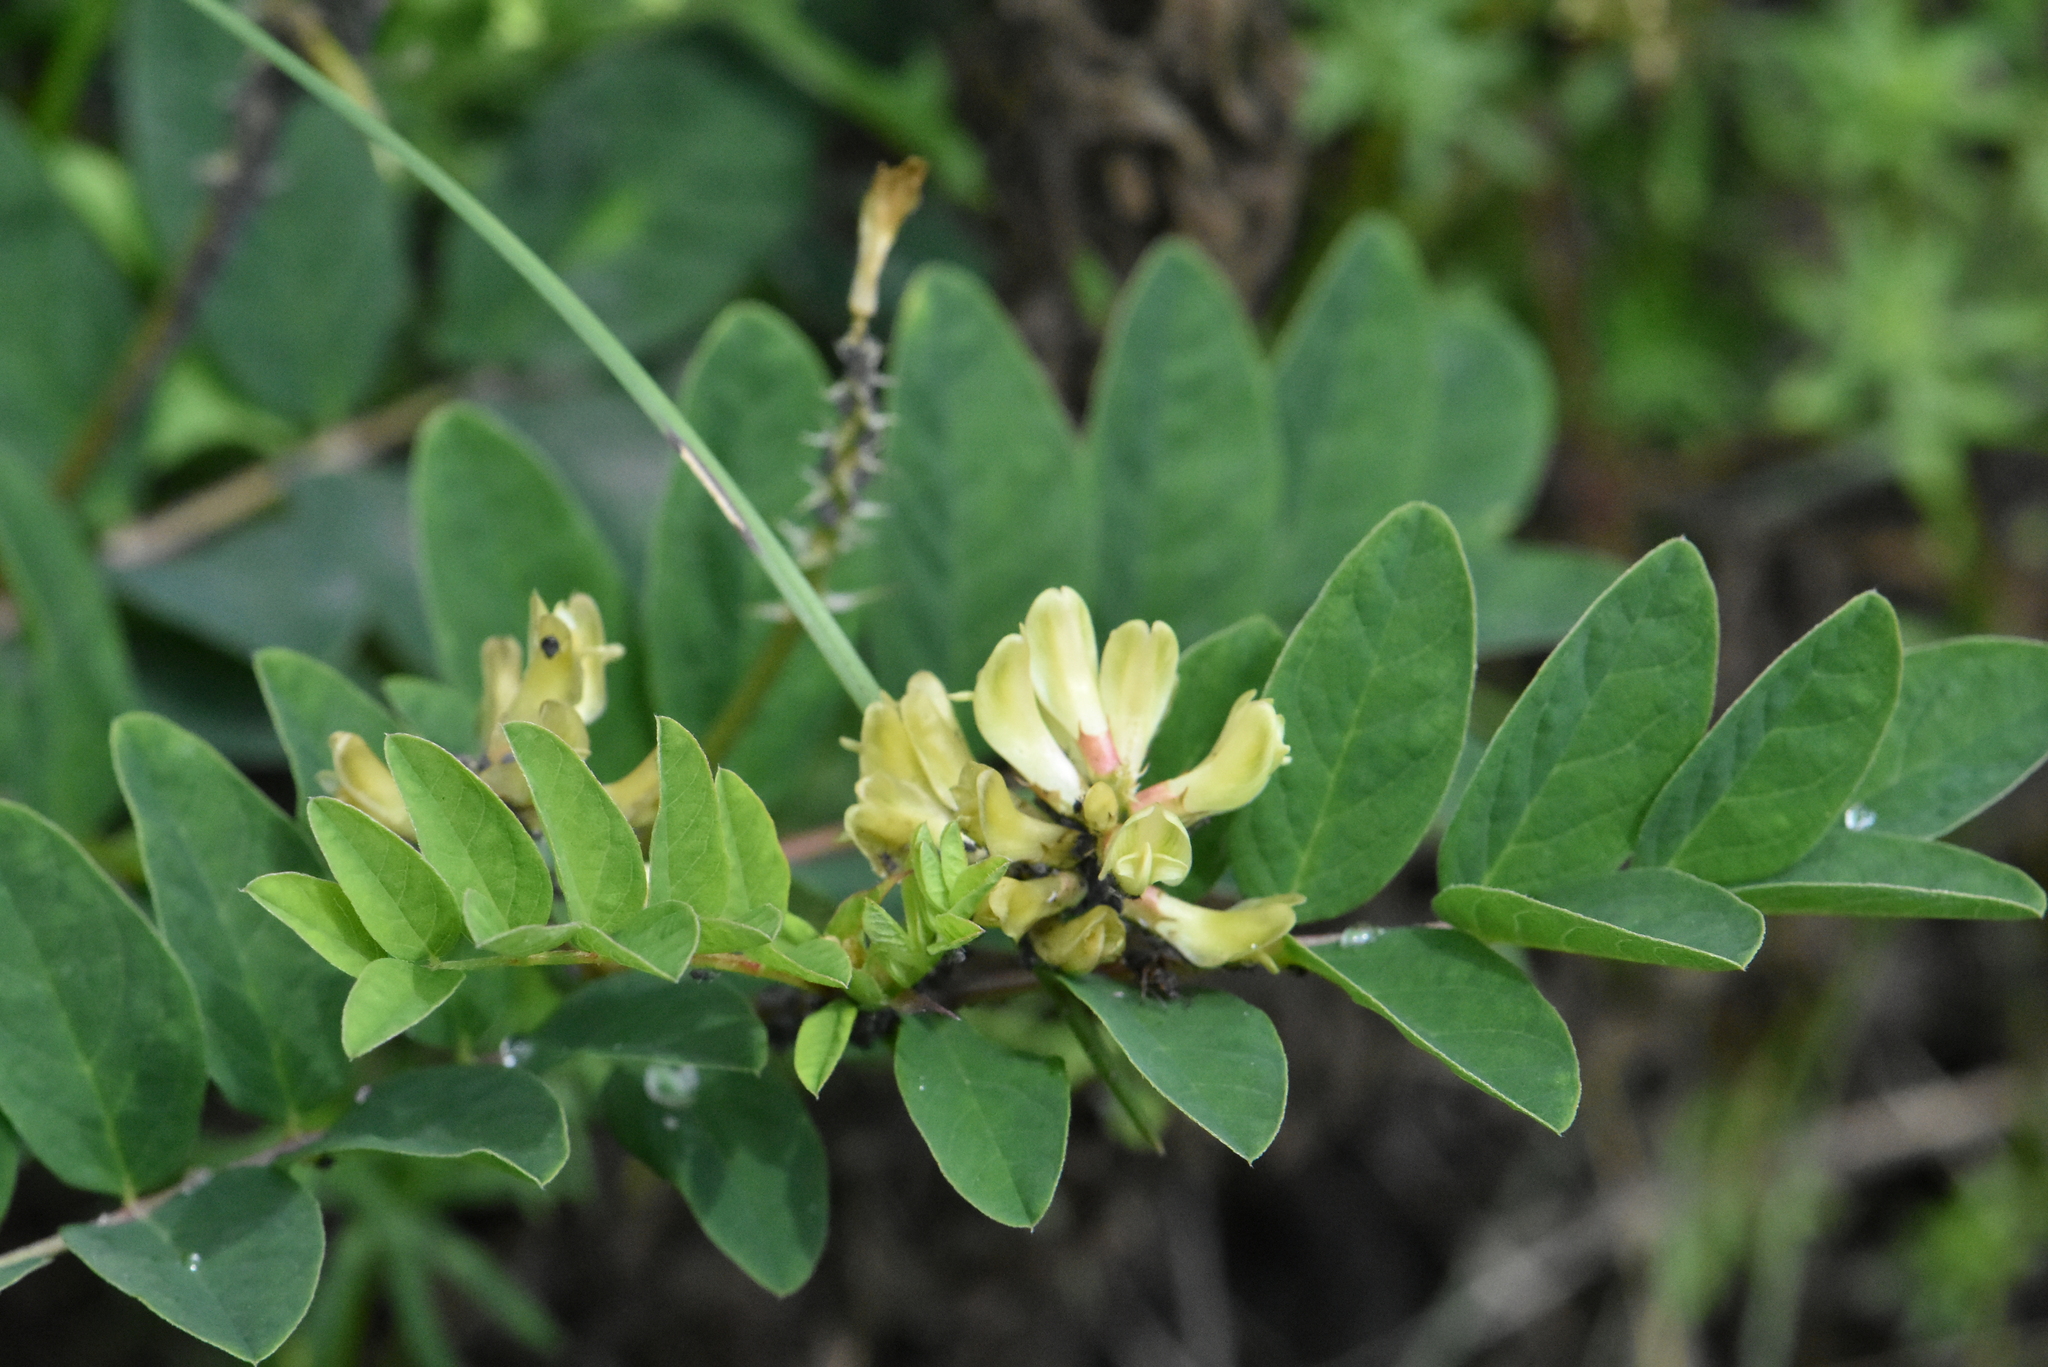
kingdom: Plantae
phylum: Tracheophyta
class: Magnoliopsida
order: Fabales
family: Fabaceae
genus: Astragalus
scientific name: Astragalus glycyphyllos
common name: Wild liquorice
